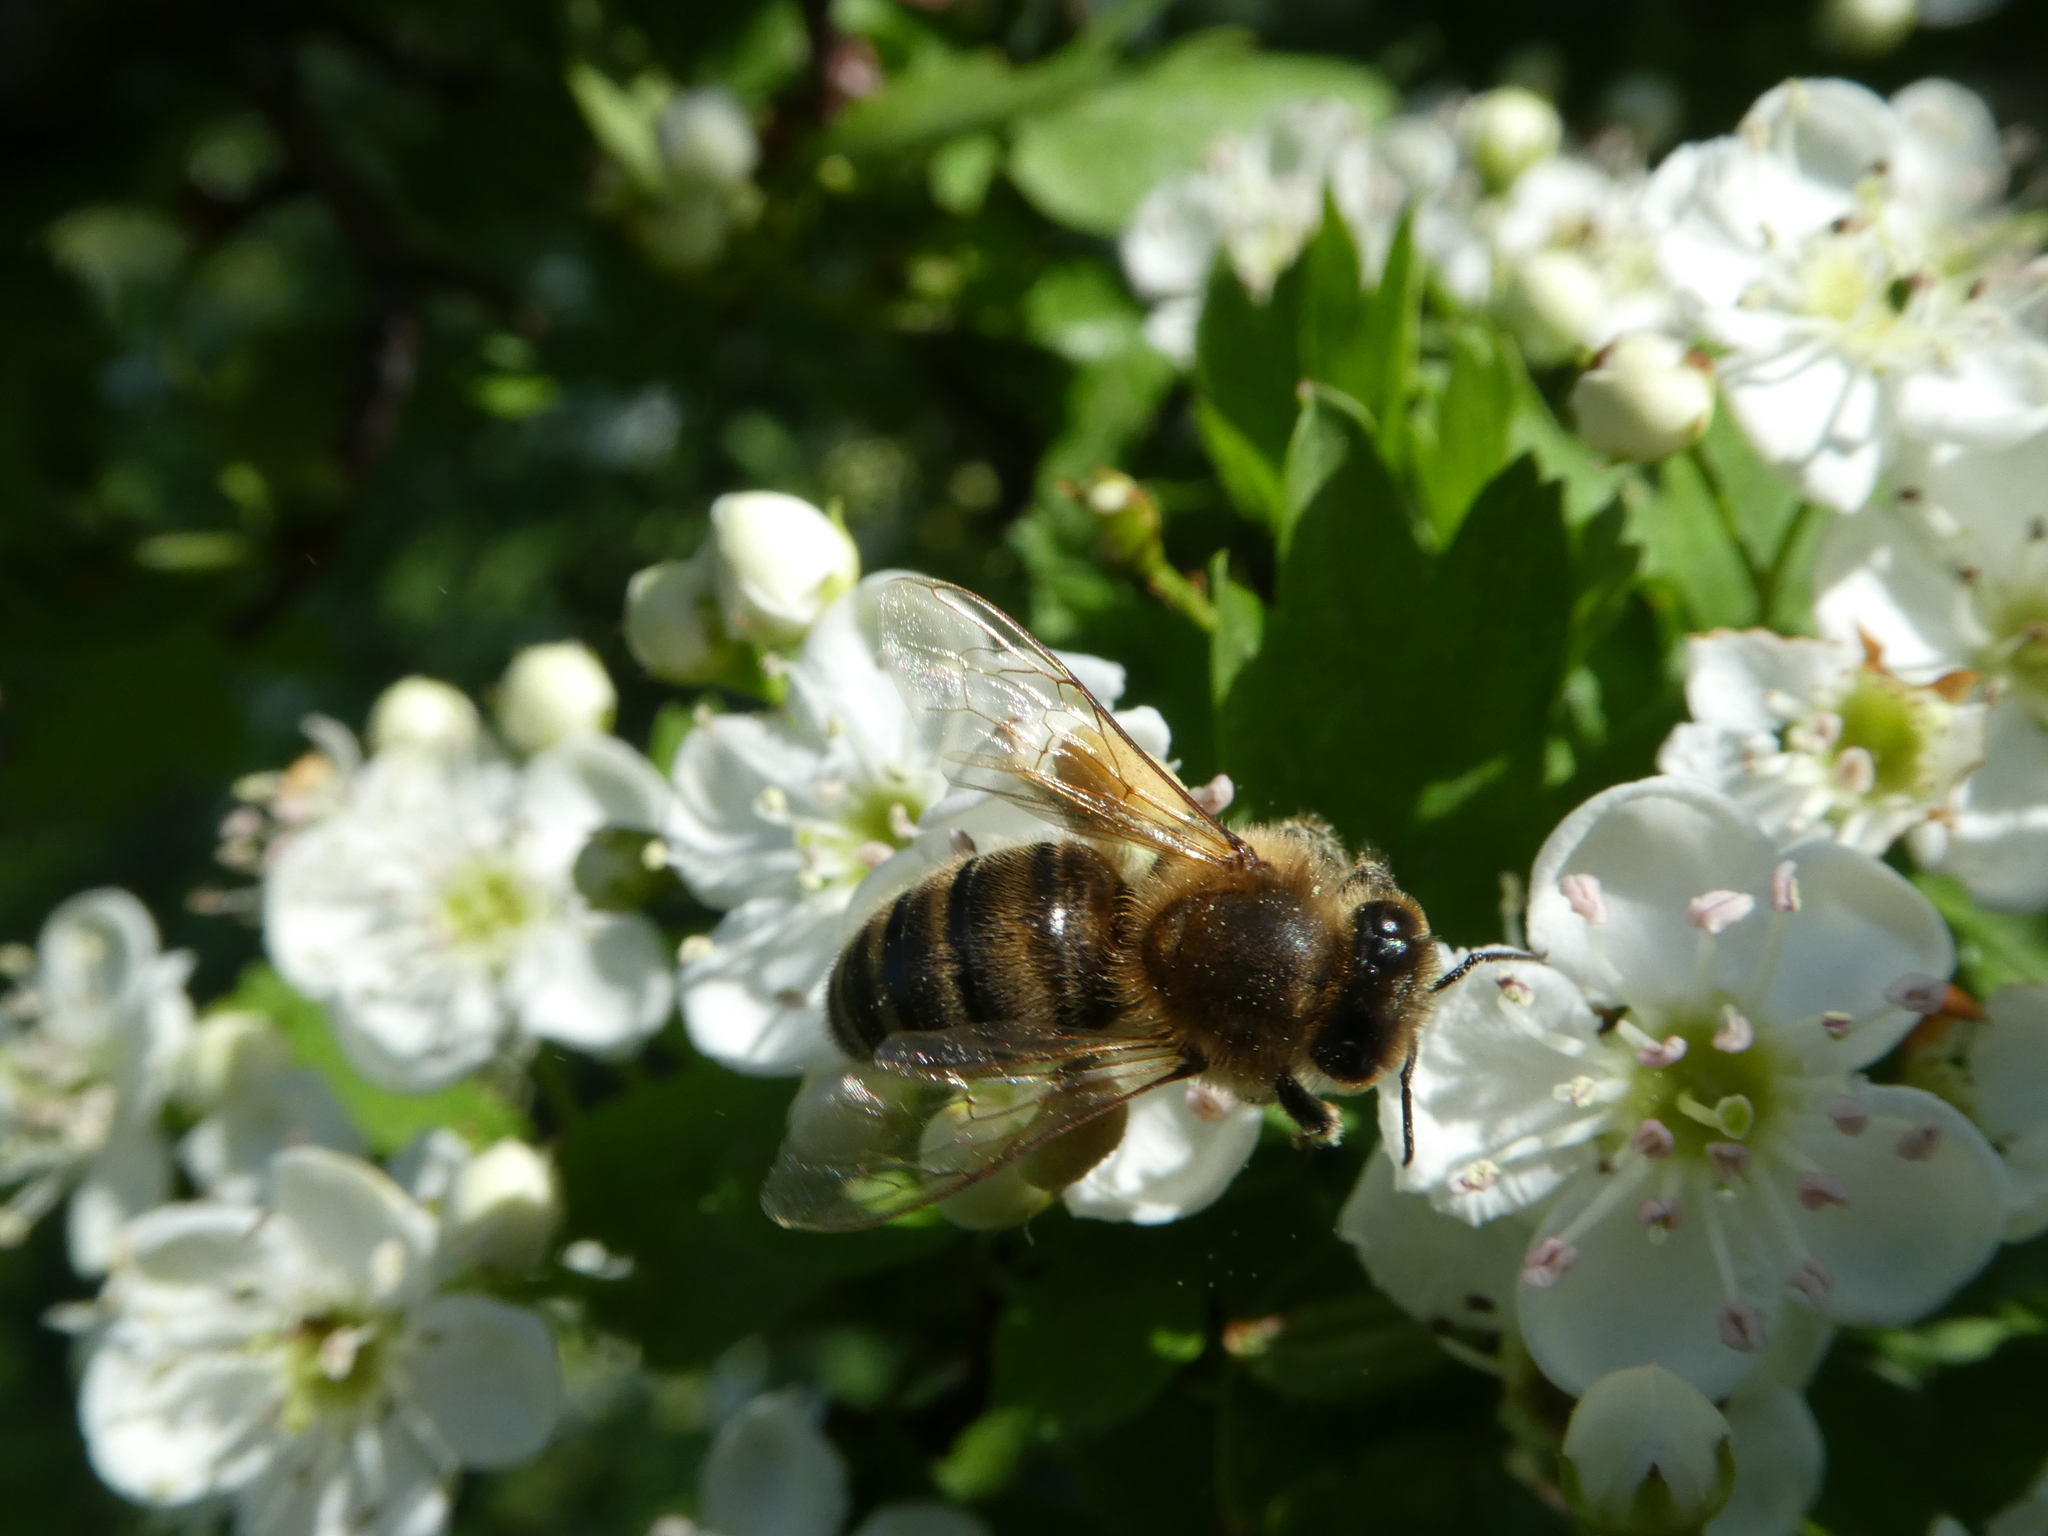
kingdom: Animalia
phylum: Arthropoda
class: Insecta
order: Hymenoptera
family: Apidae
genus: Apis
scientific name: Apis mellifera
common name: Honey bee
